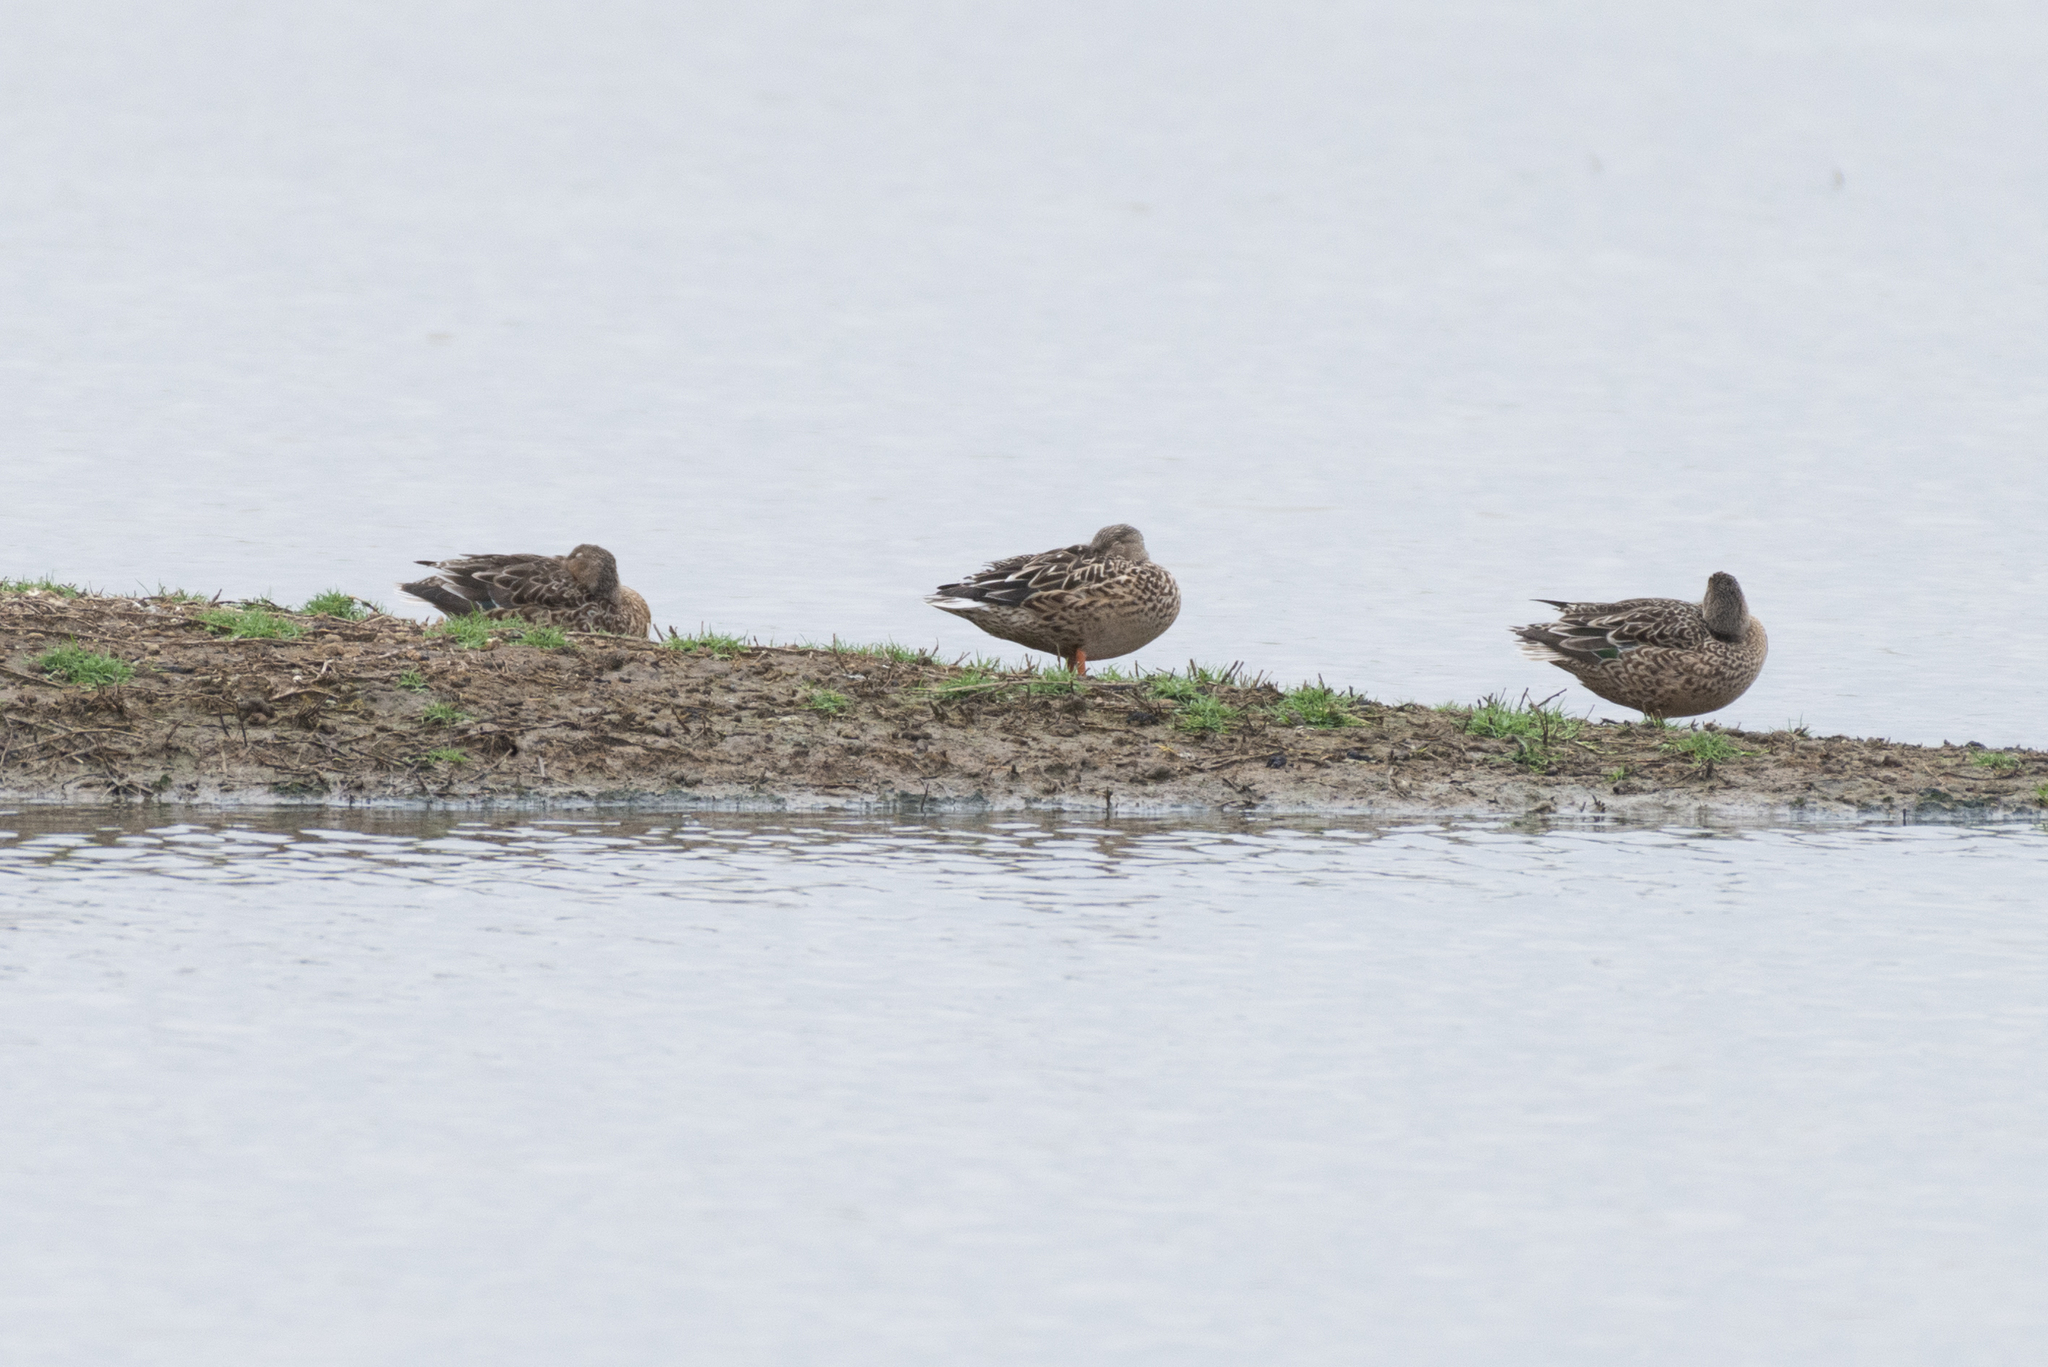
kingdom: Animalia
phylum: Chordata
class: Aves
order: Anseriformes
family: Anatidae
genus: Spatula
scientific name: Spatula clypeata
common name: Northern shoveler
